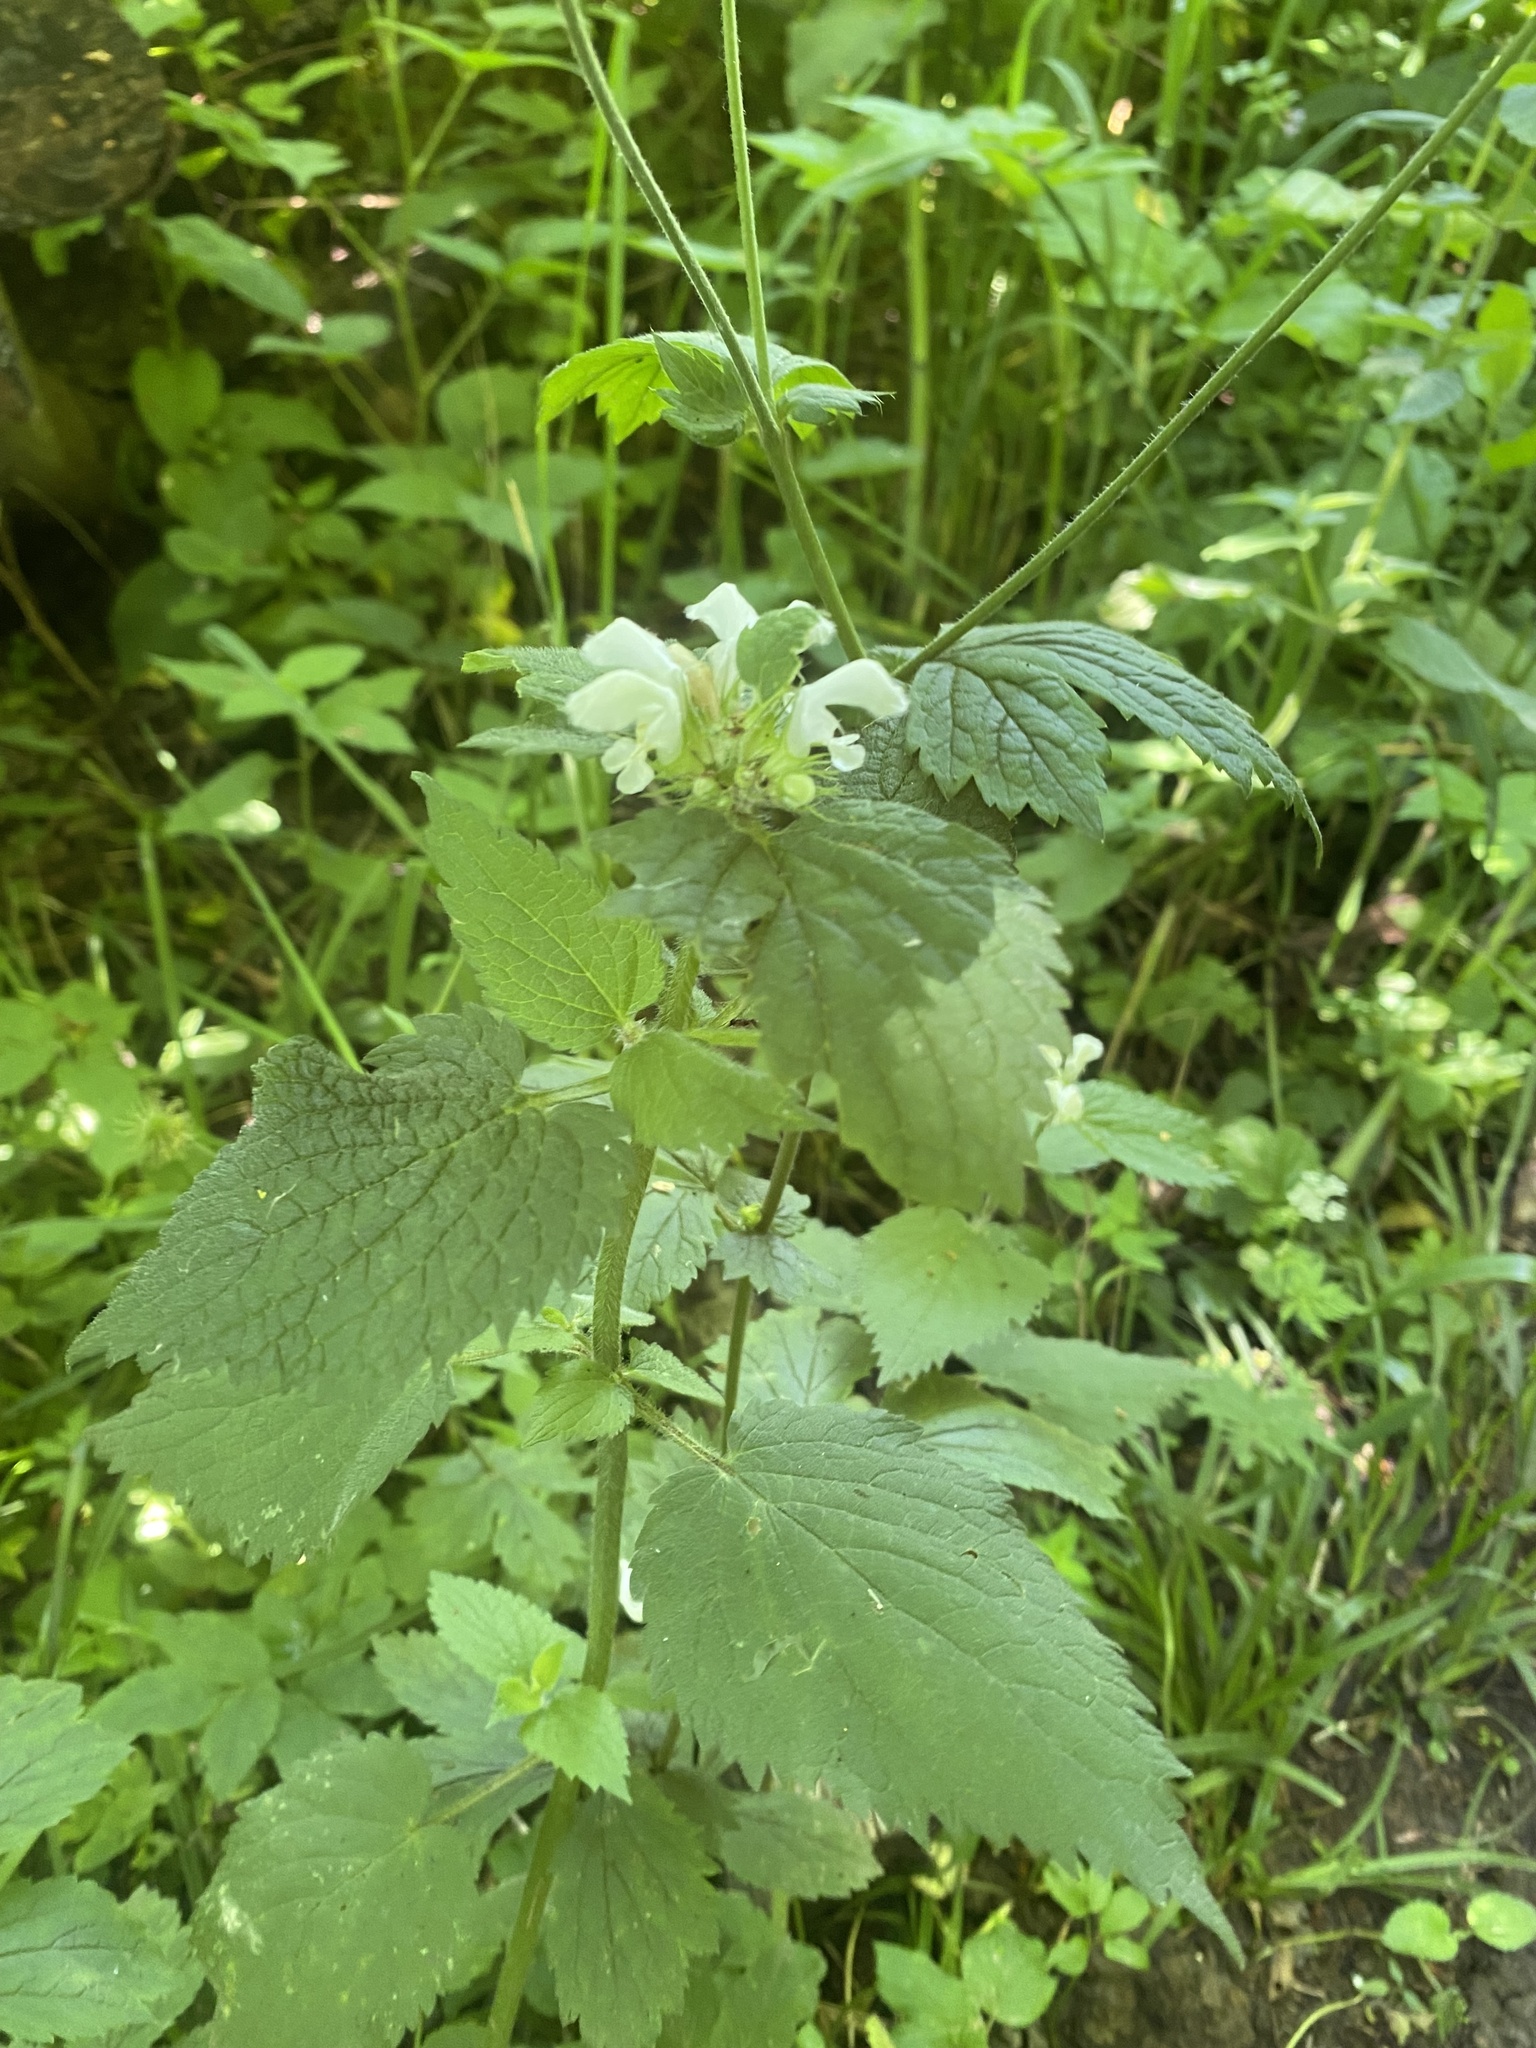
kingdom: Plantae
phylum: Tracheophyta
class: Magnoliopsida
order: Lamiales
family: Lamiaceae
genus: Lamium
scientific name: Lamium album
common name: White dead-nettle
